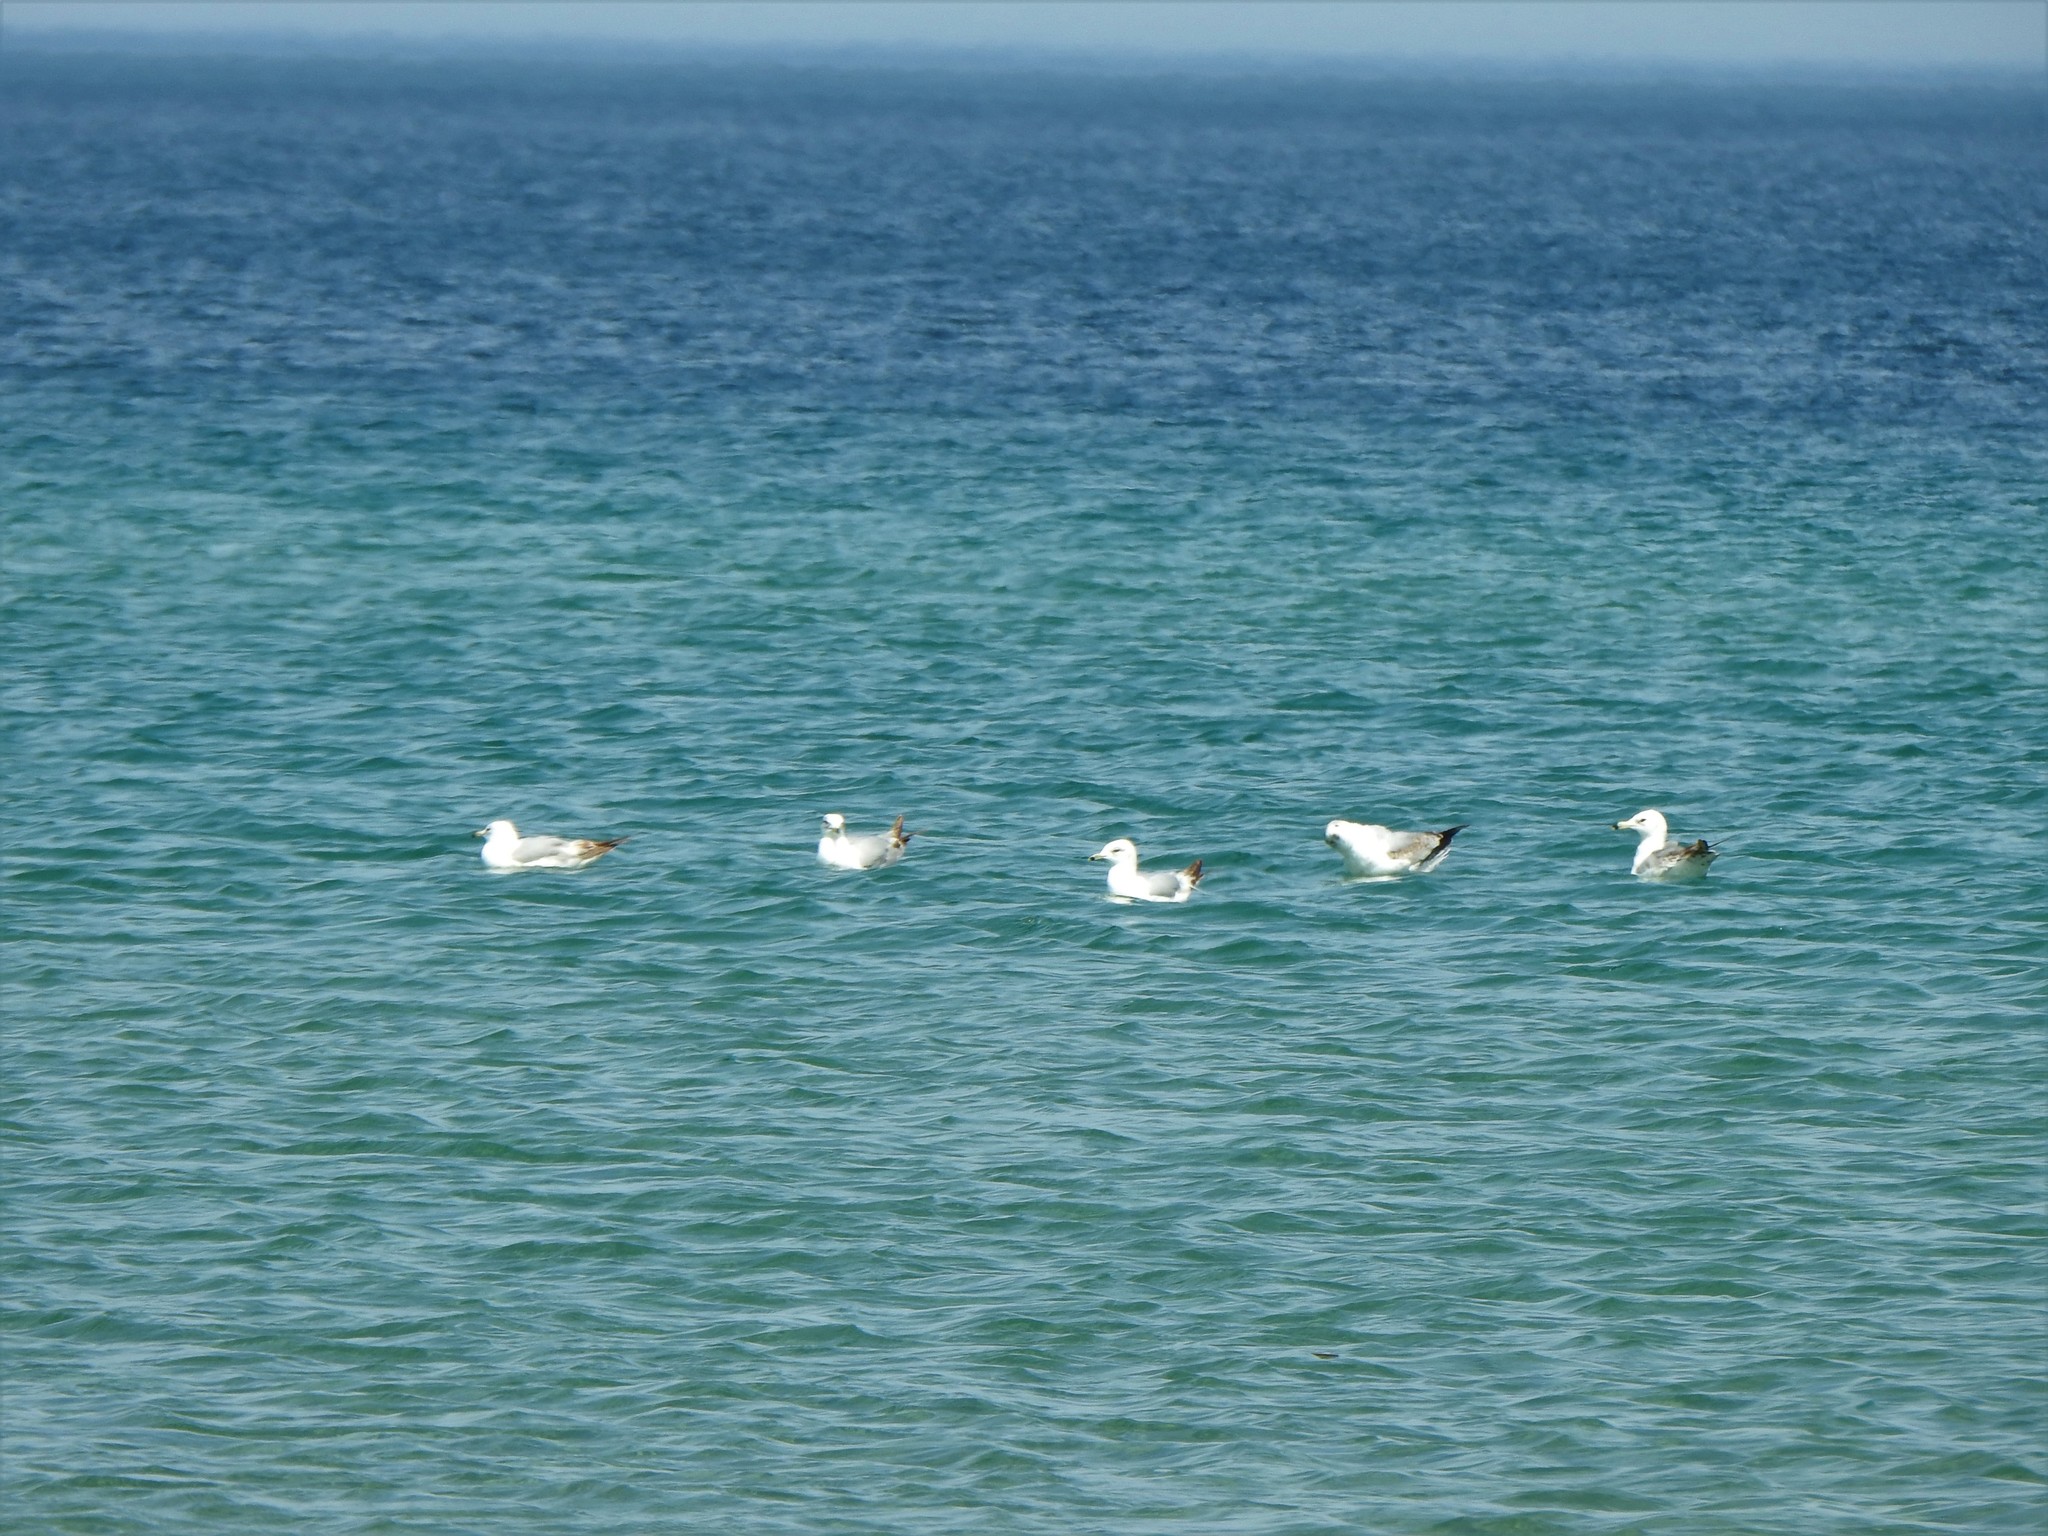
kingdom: Animalia
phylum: Chordata
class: Aves
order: Charadriiformes
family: Laridae
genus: Larus
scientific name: Larus delawarensis
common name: Ring-billed gull
